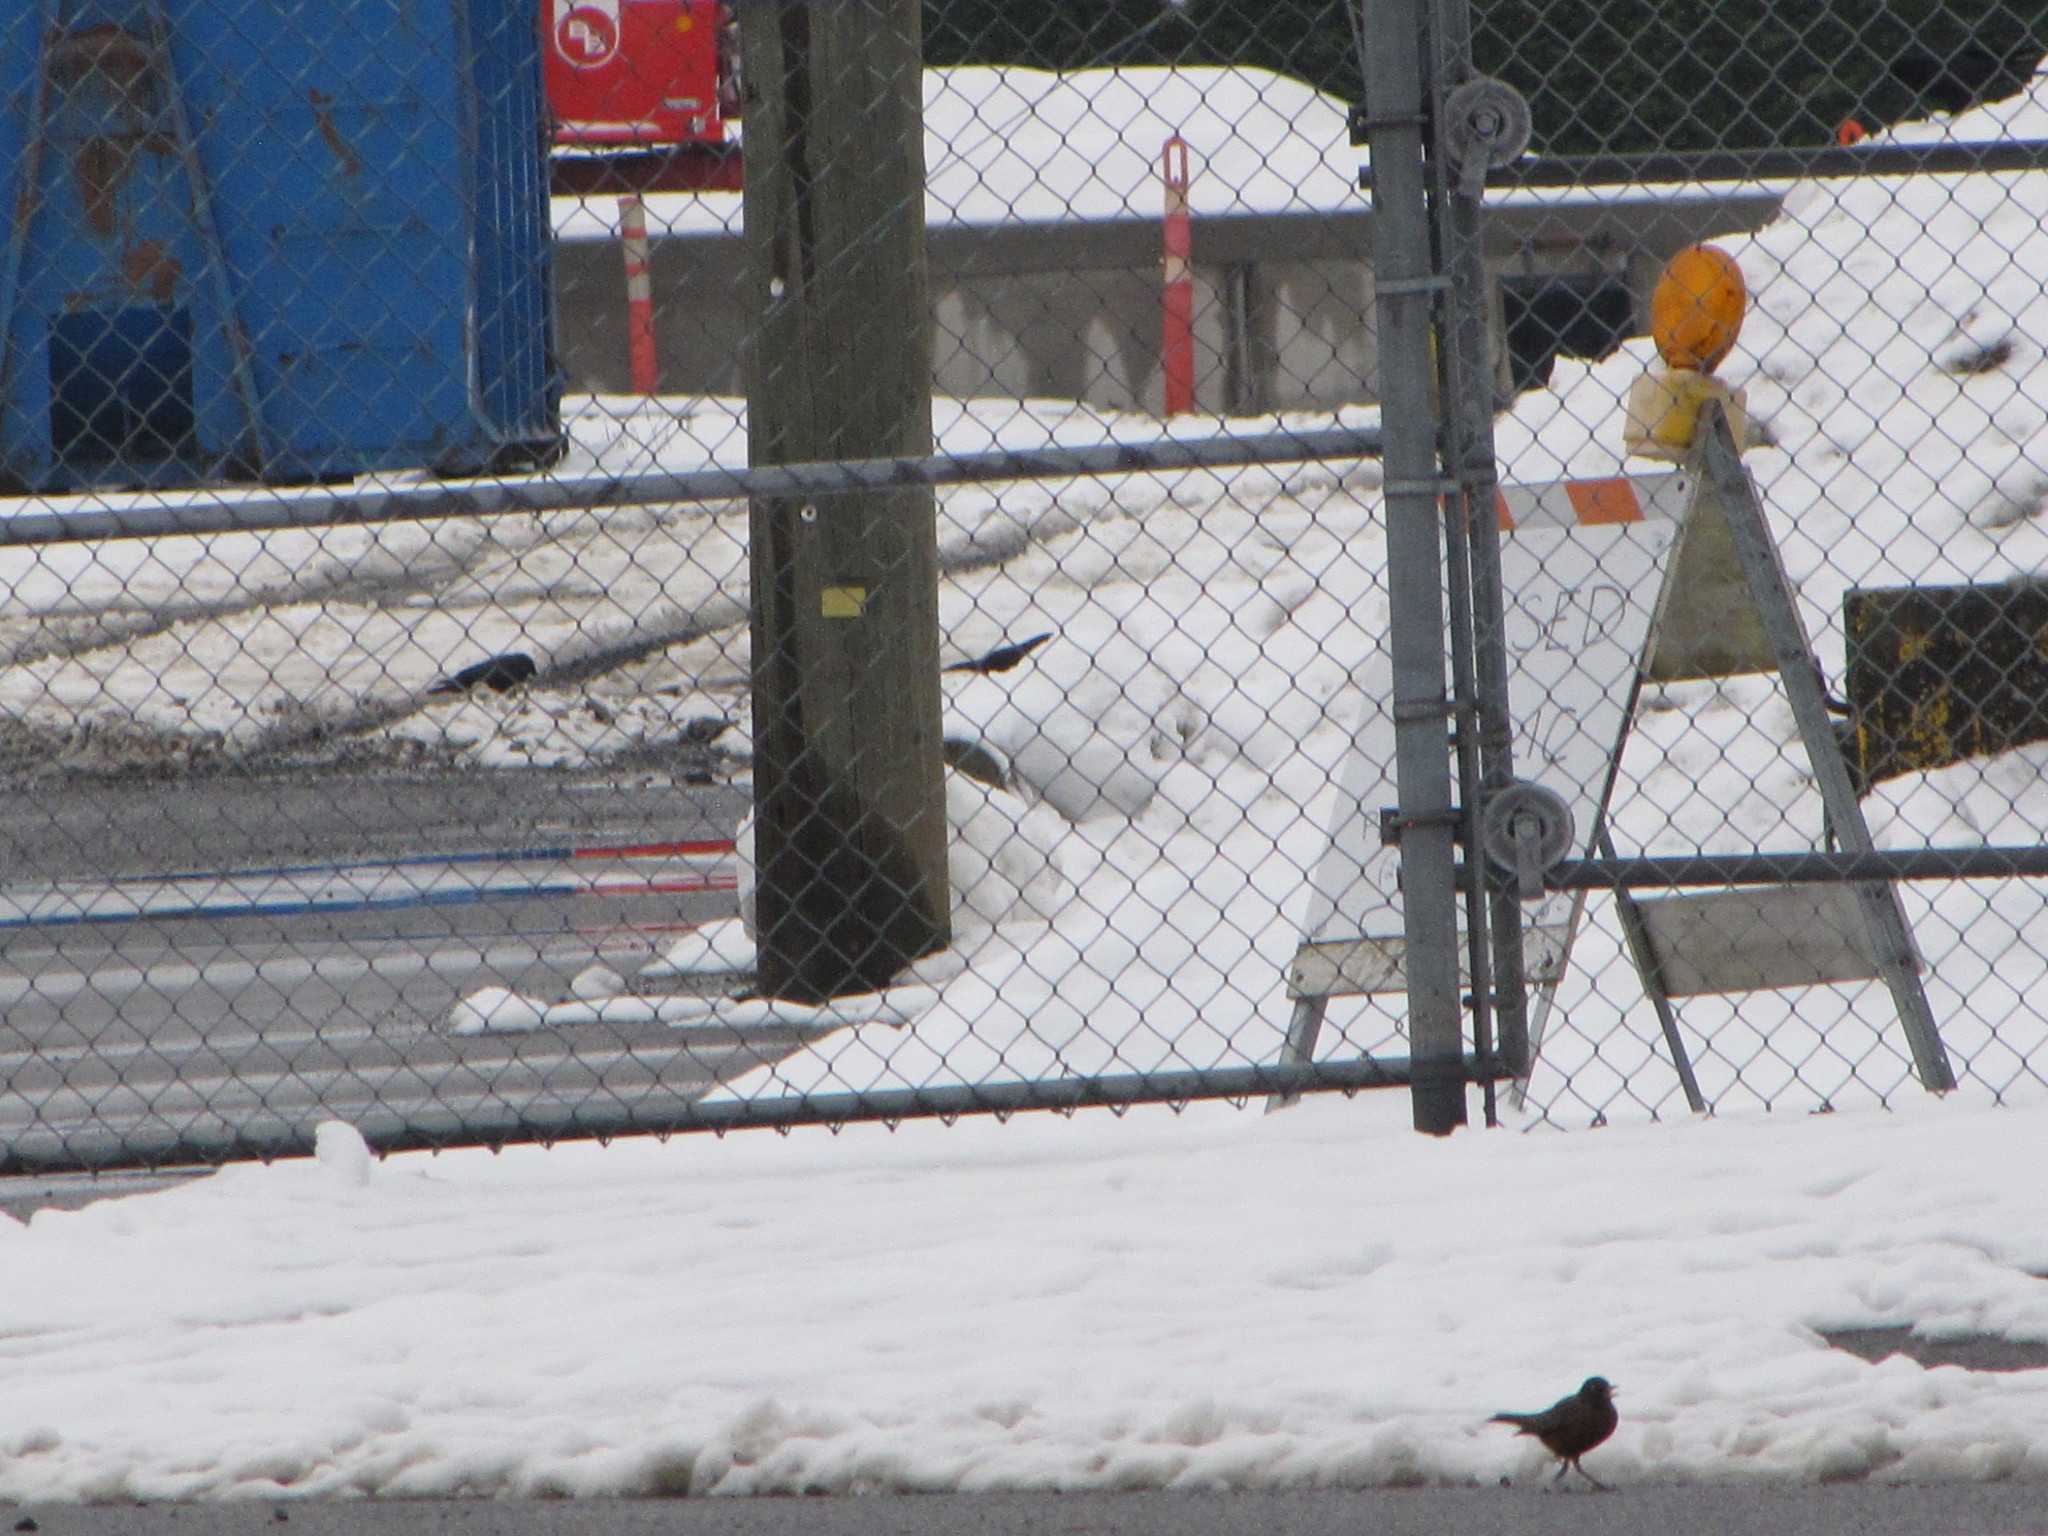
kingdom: Animalia
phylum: Chordata
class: Aves
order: Passeriformes
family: Turdidae
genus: Turdus
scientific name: Turdus migratorius
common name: American robin
